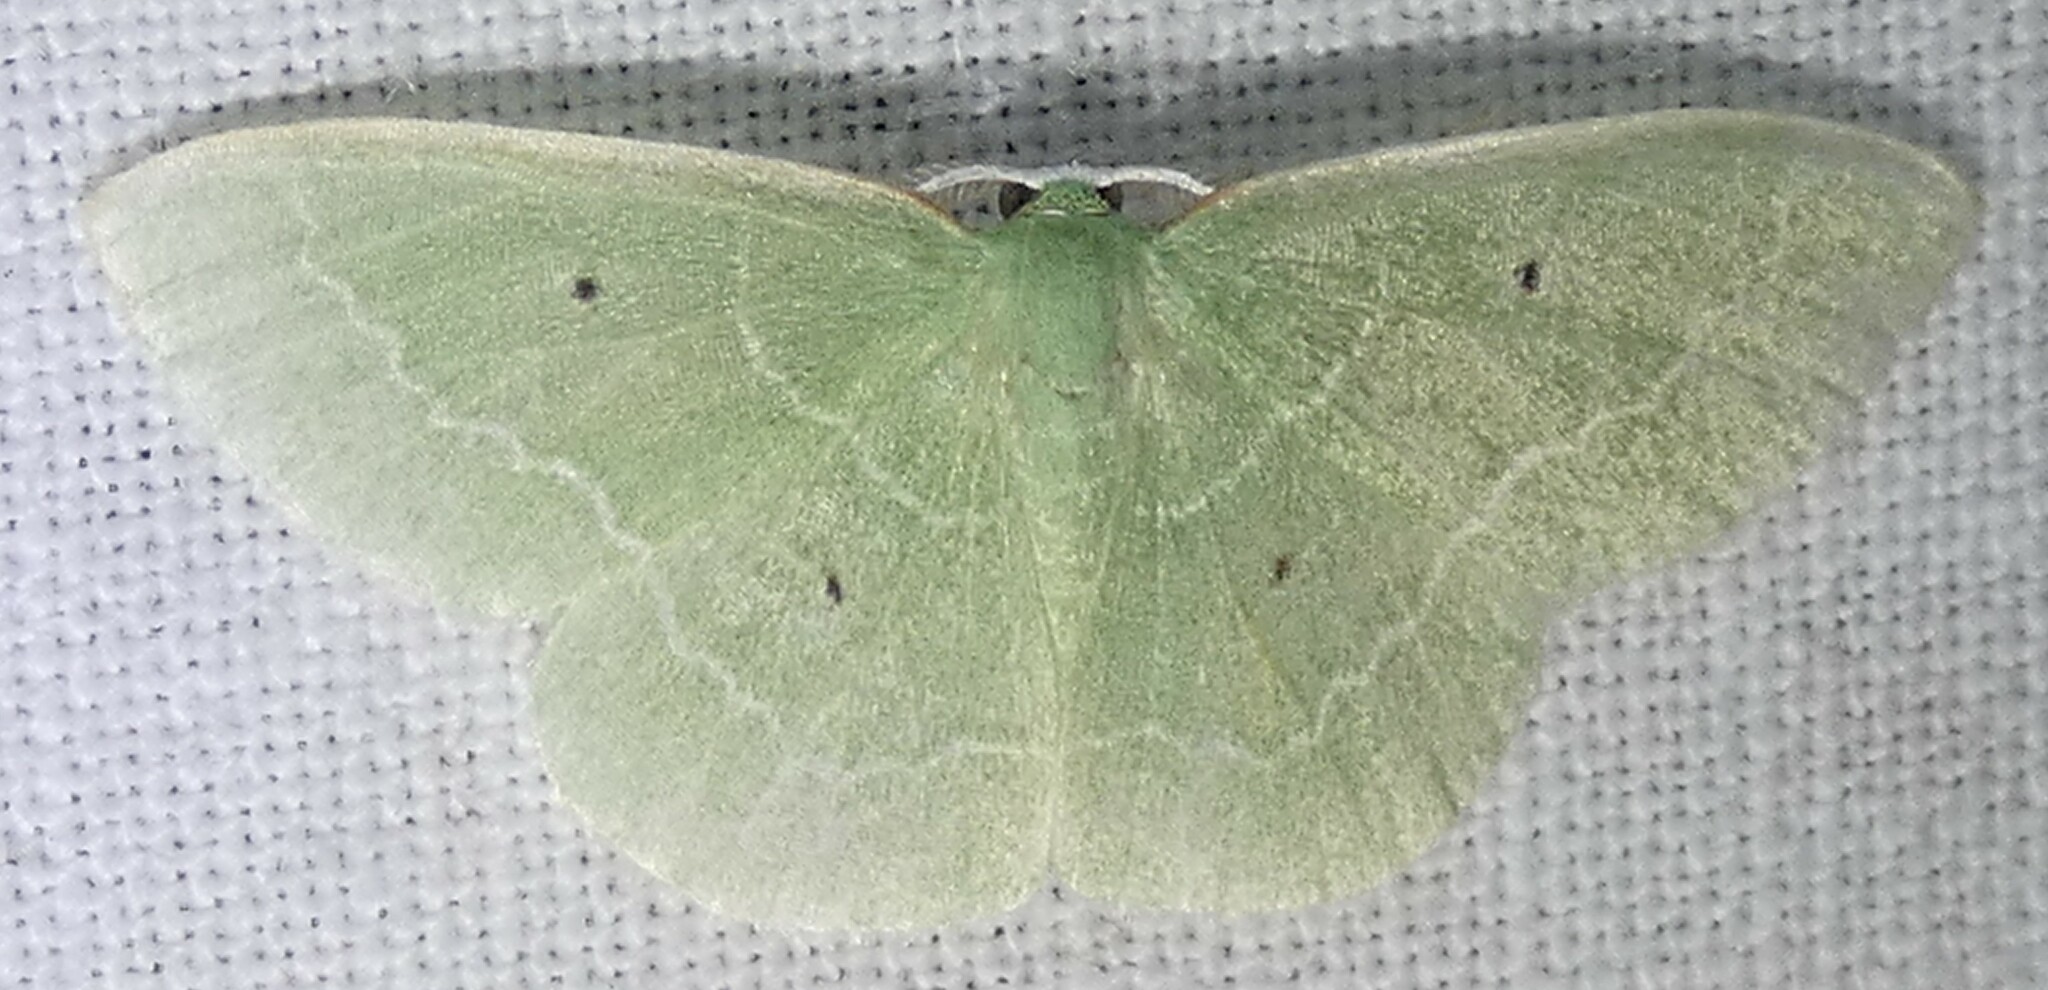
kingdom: Animalia
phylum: Arthropoda
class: Insecta
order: Lepidoptera
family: Geometridae
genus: Nemoria
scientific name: Nemoria elfa
